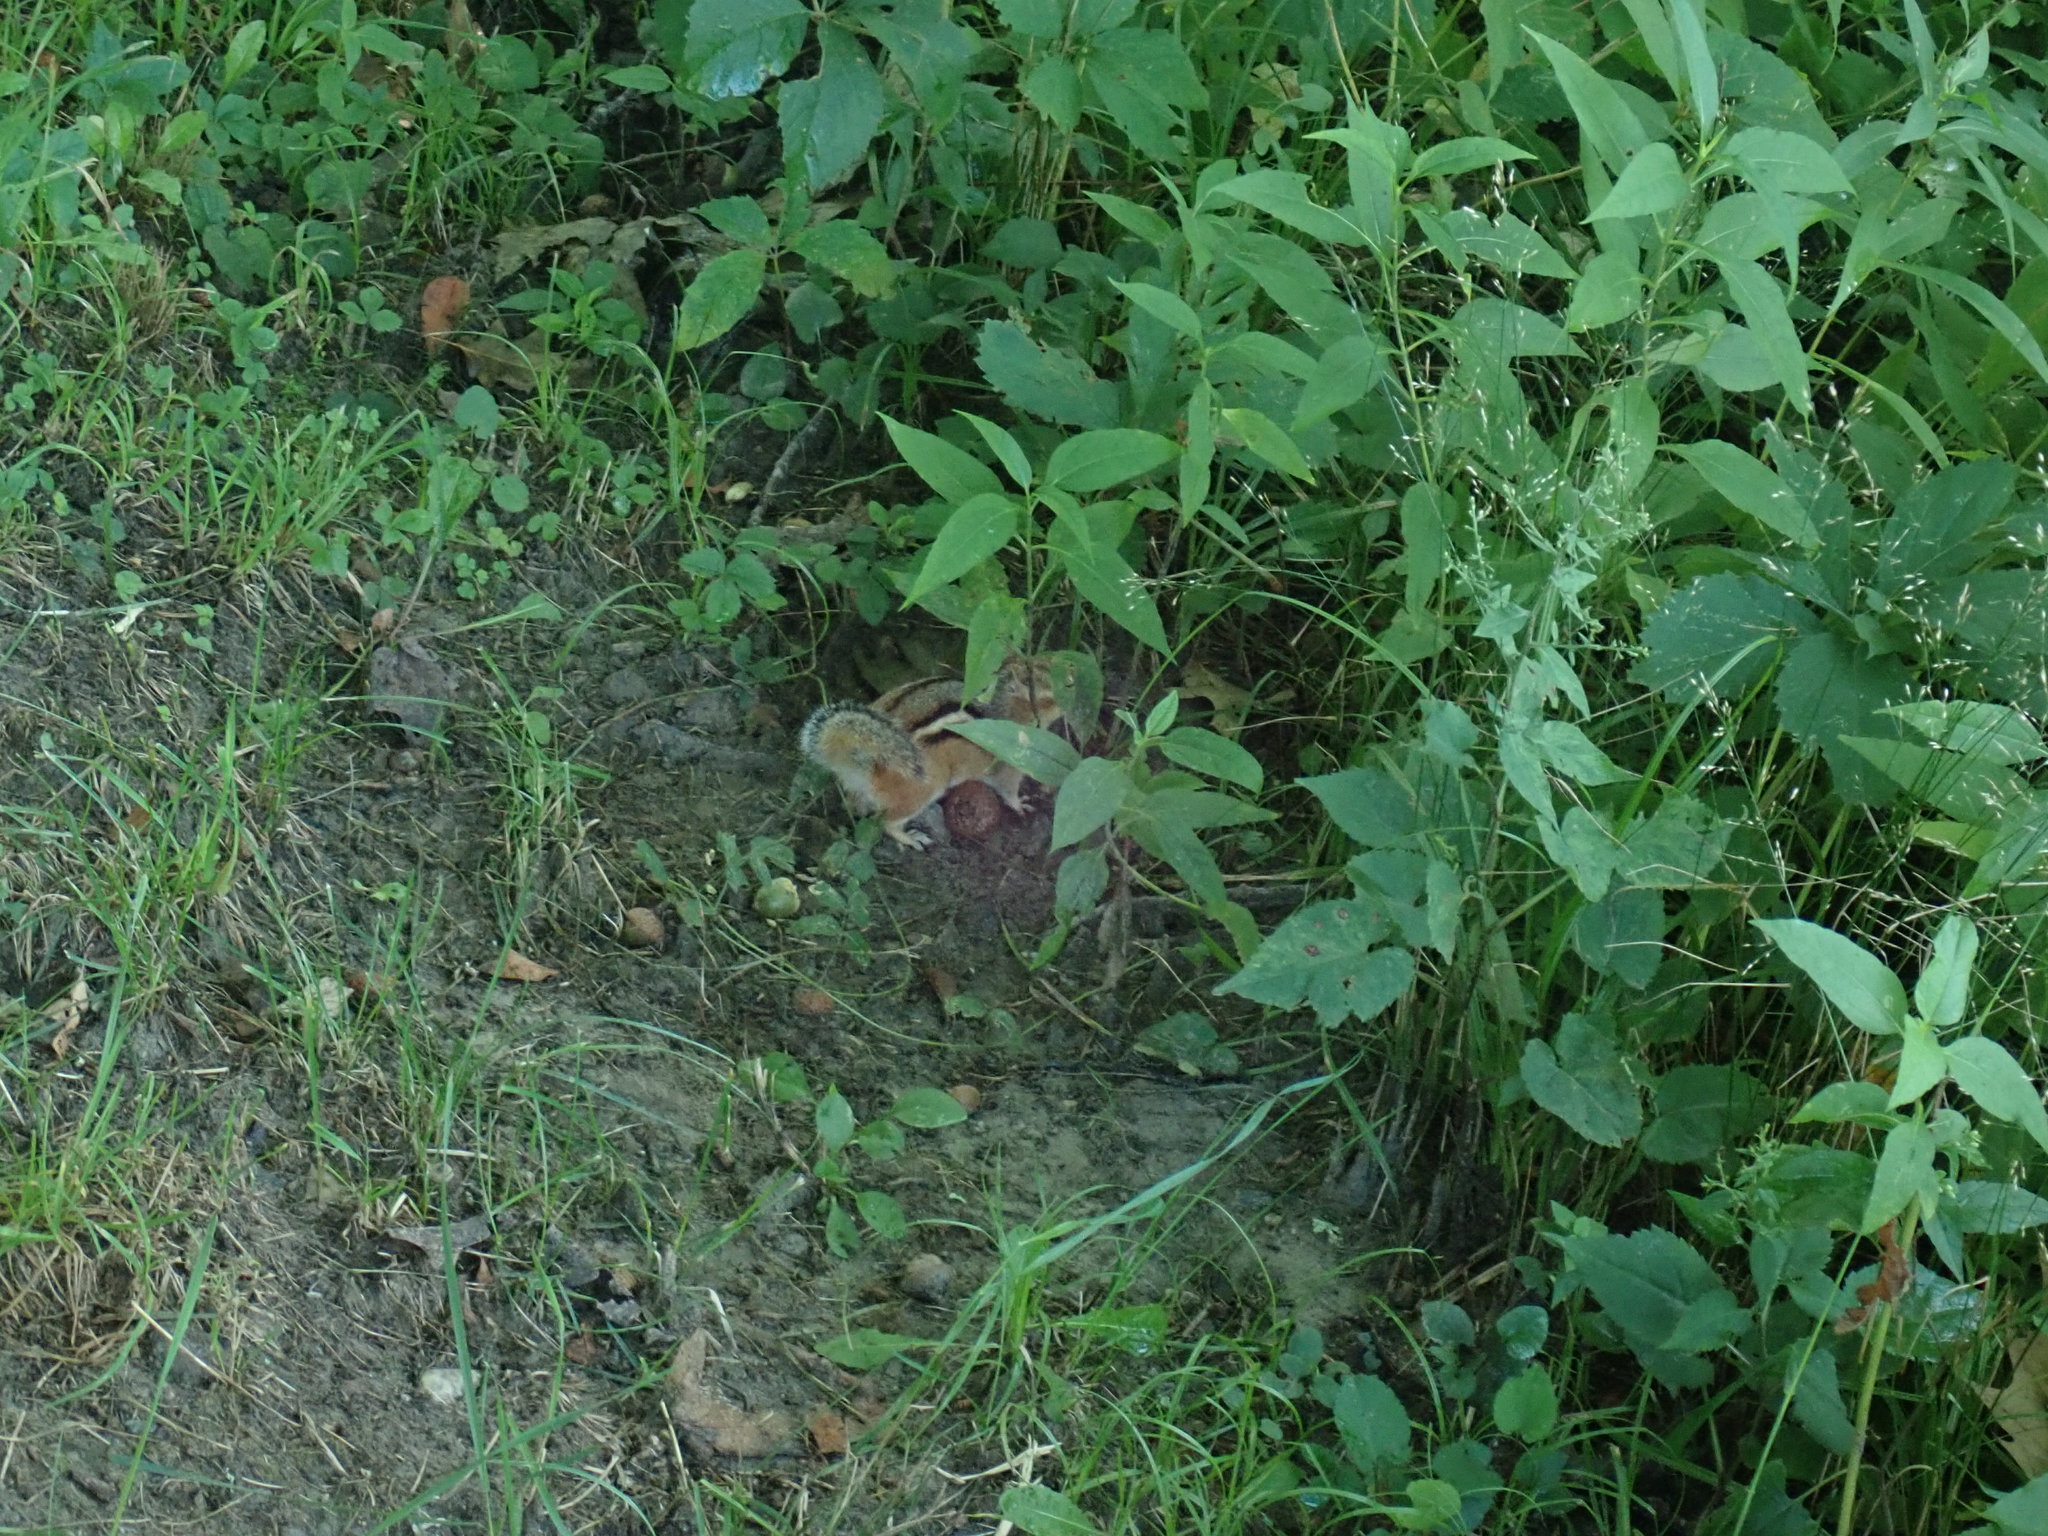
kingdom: Animalia
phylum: Chordata
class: Mammalia
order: Rodentia
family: Sciuridae
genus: Tamias
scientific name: Tamias striatus
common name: Eastern chipmunk
